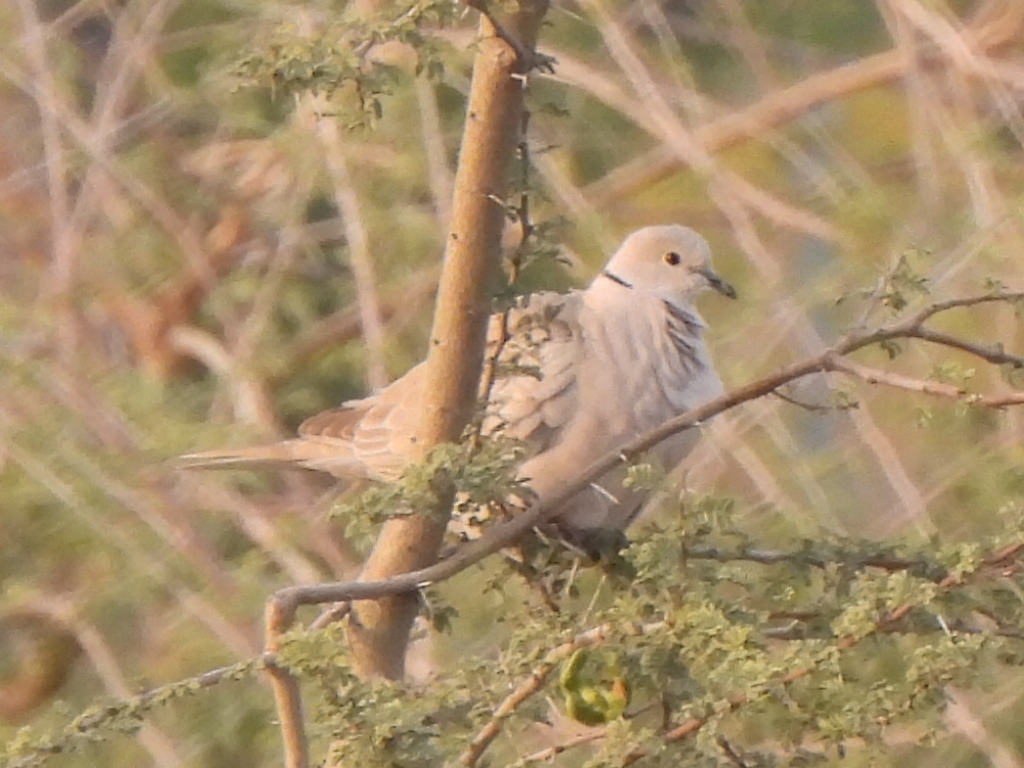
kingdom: Animalia
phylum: Chordata
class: Aves
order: Columbiformes
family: Columbidae
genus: Streptopelia
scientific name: Streptopelia decaocto
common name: Eurasian collared dove
